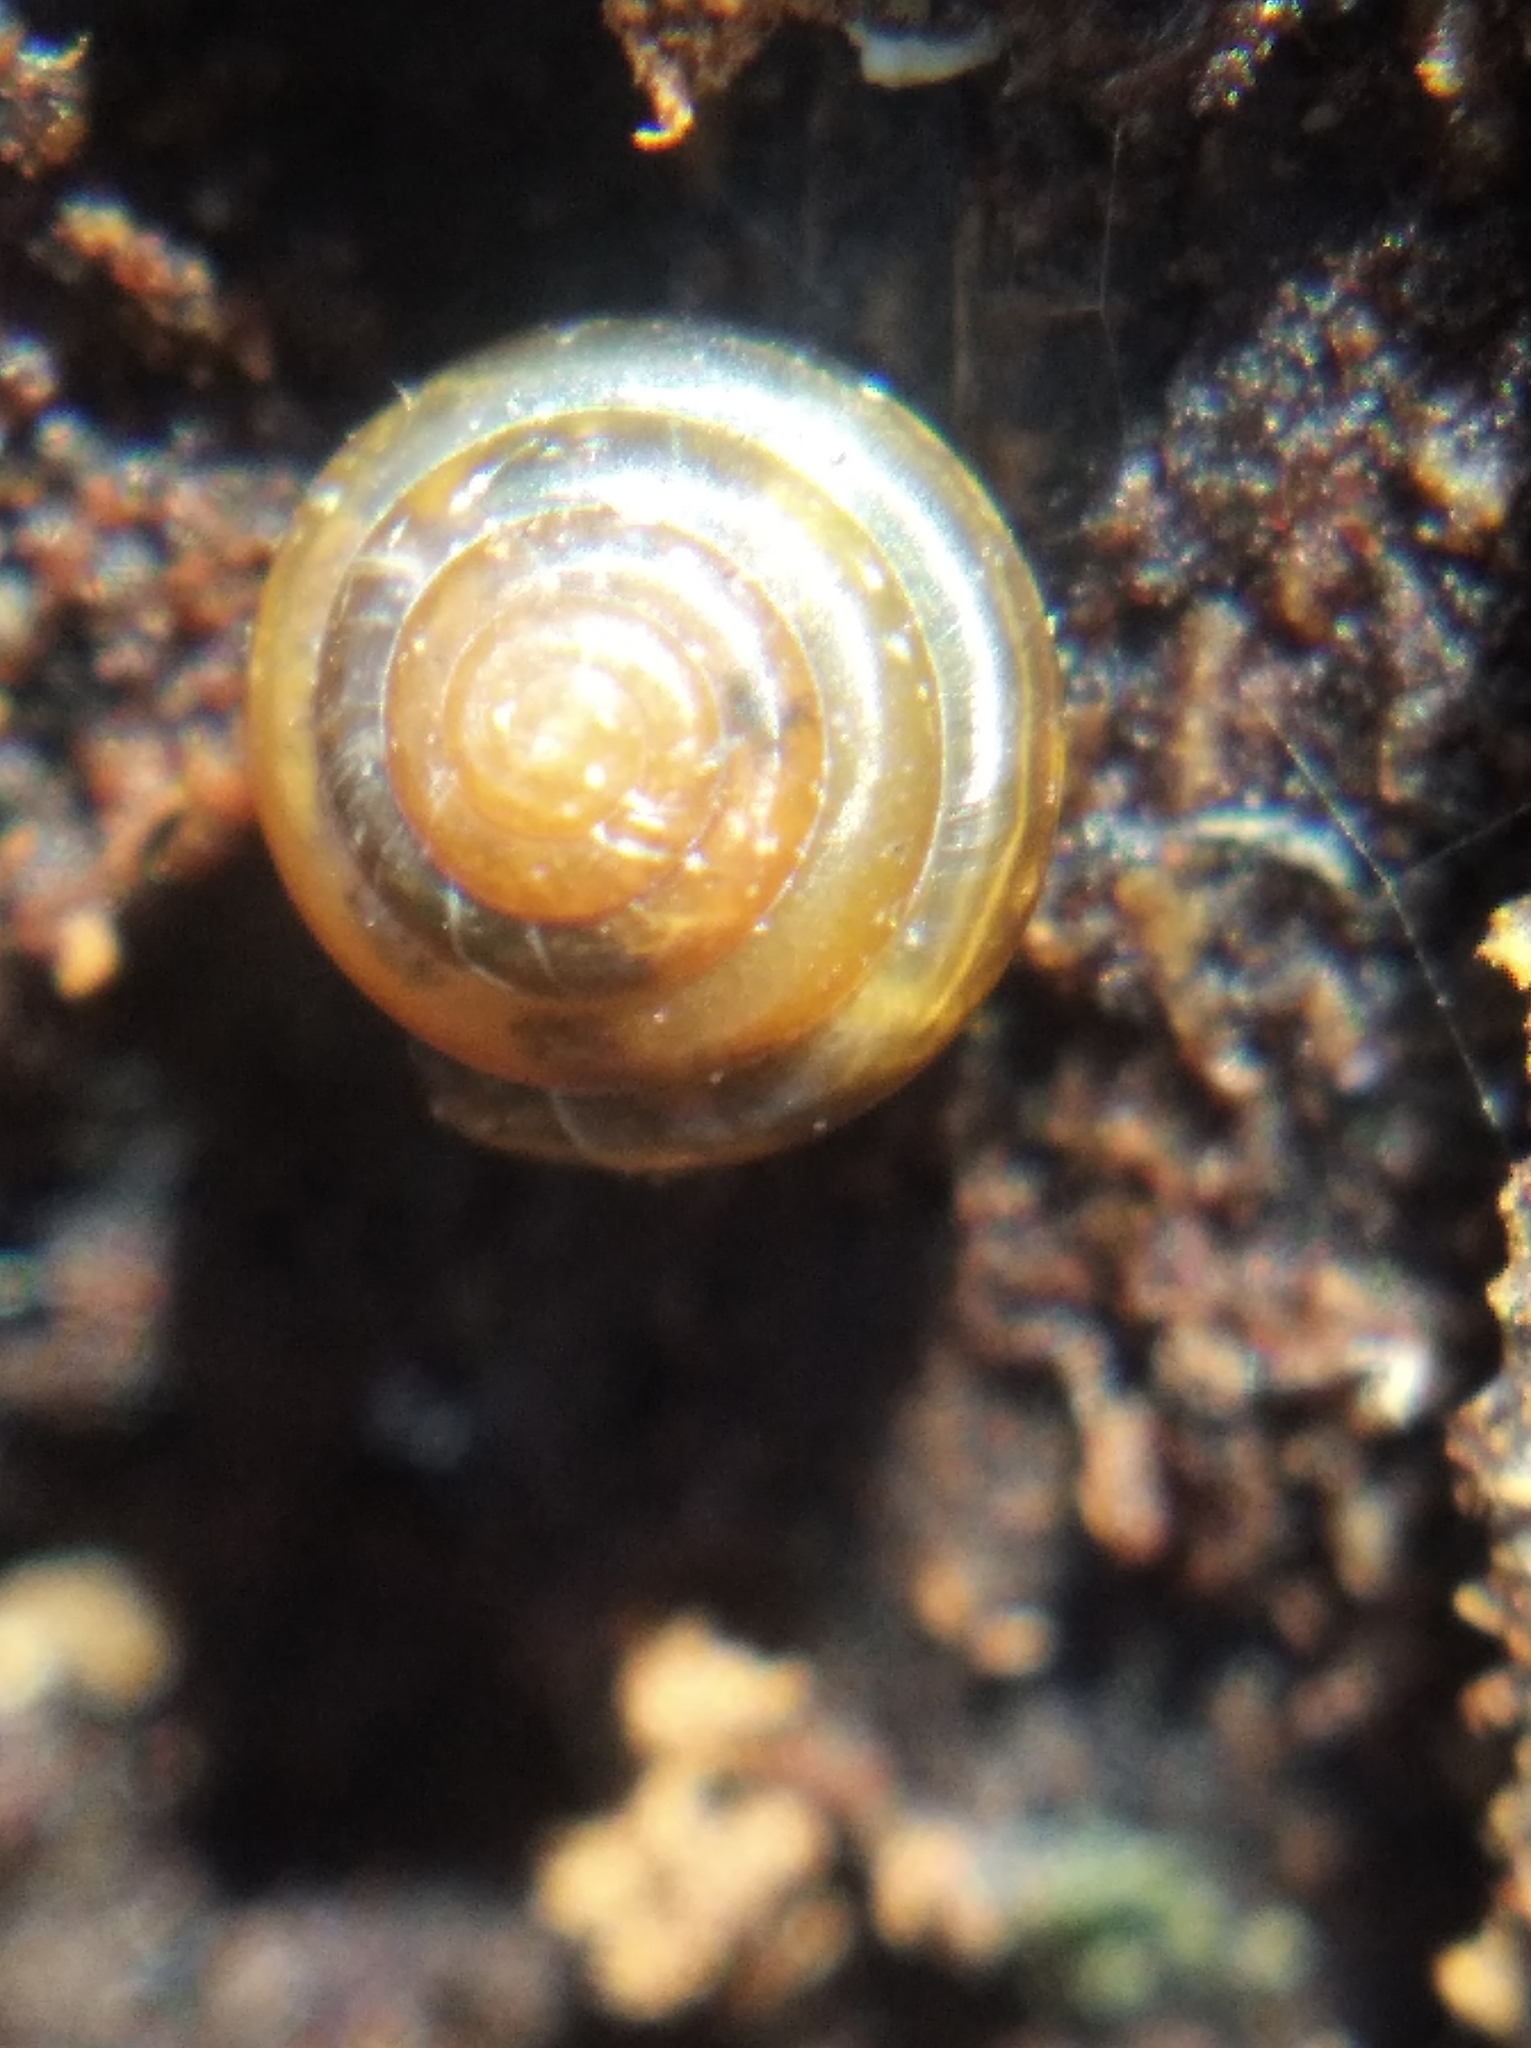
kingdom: Animalia
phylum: Mollusca
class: Gastropoda
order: Stylommatophora
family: Euconulidae
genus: Euconulus
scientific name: Euconulus fulvus
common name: Tawny glass snail
